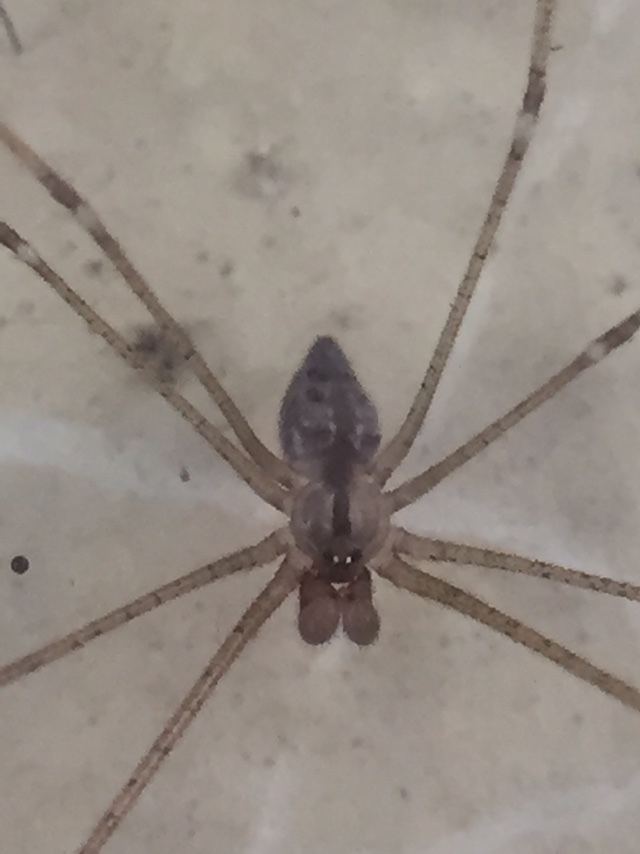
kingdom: Animalia
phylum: Arthropoda
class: Arachnida
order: Araneae
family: Pholcidae
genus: Crossopriza
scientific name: Crossopriza lyoni
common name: Cellar spiders
